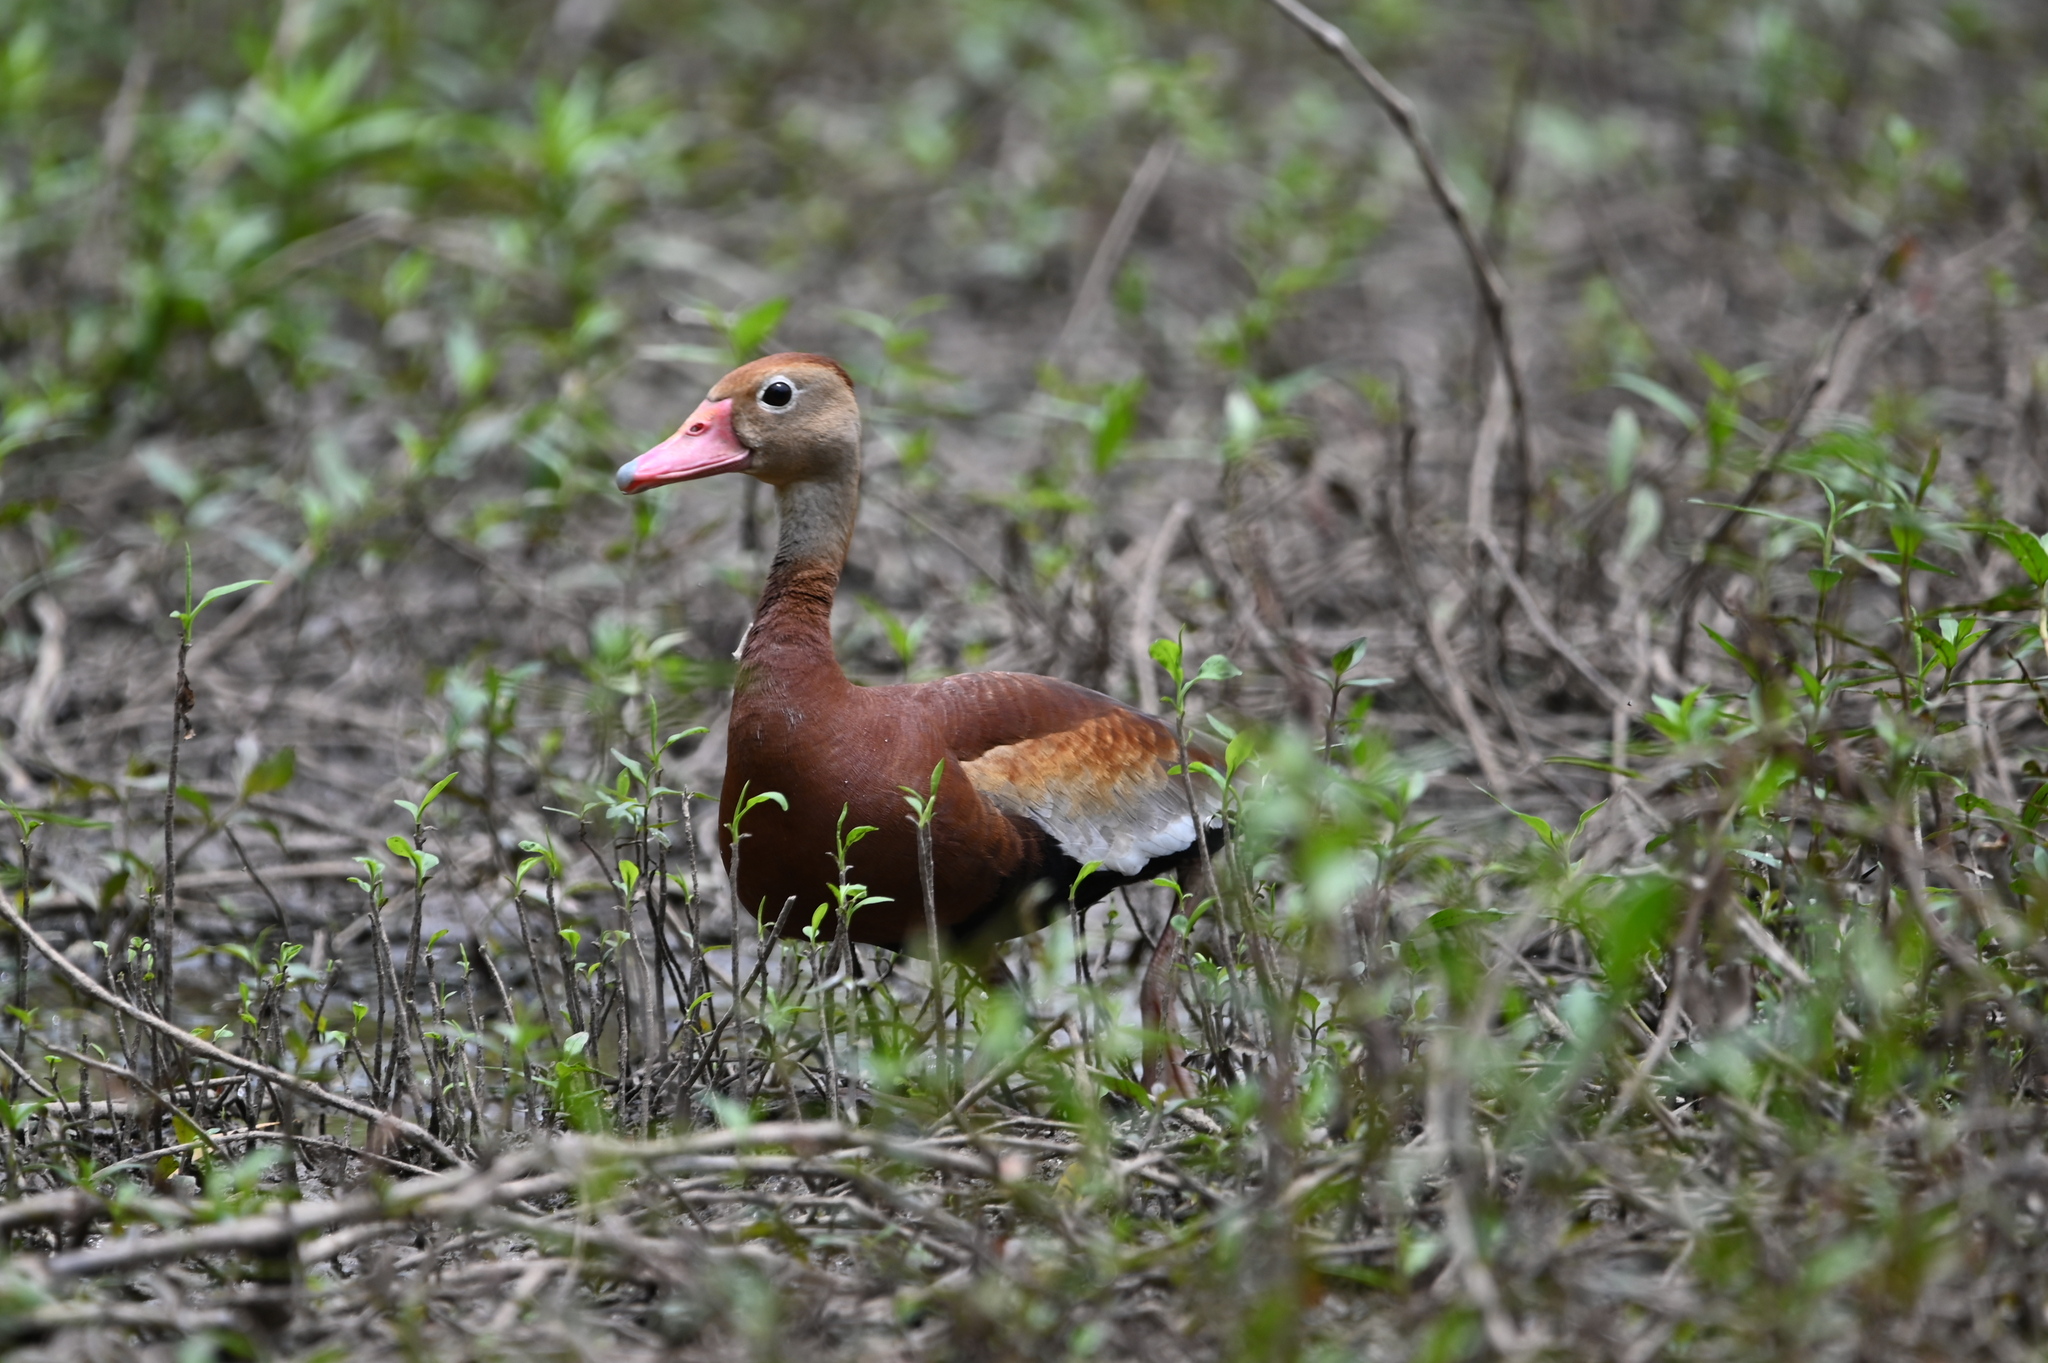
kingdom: Animalia
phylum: Chordata
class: Aves
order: Anseriformes
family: Anatidae
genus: Dendrocygna
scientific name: Dendrocygna autumnalis
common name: Black-bellied whistling duck
